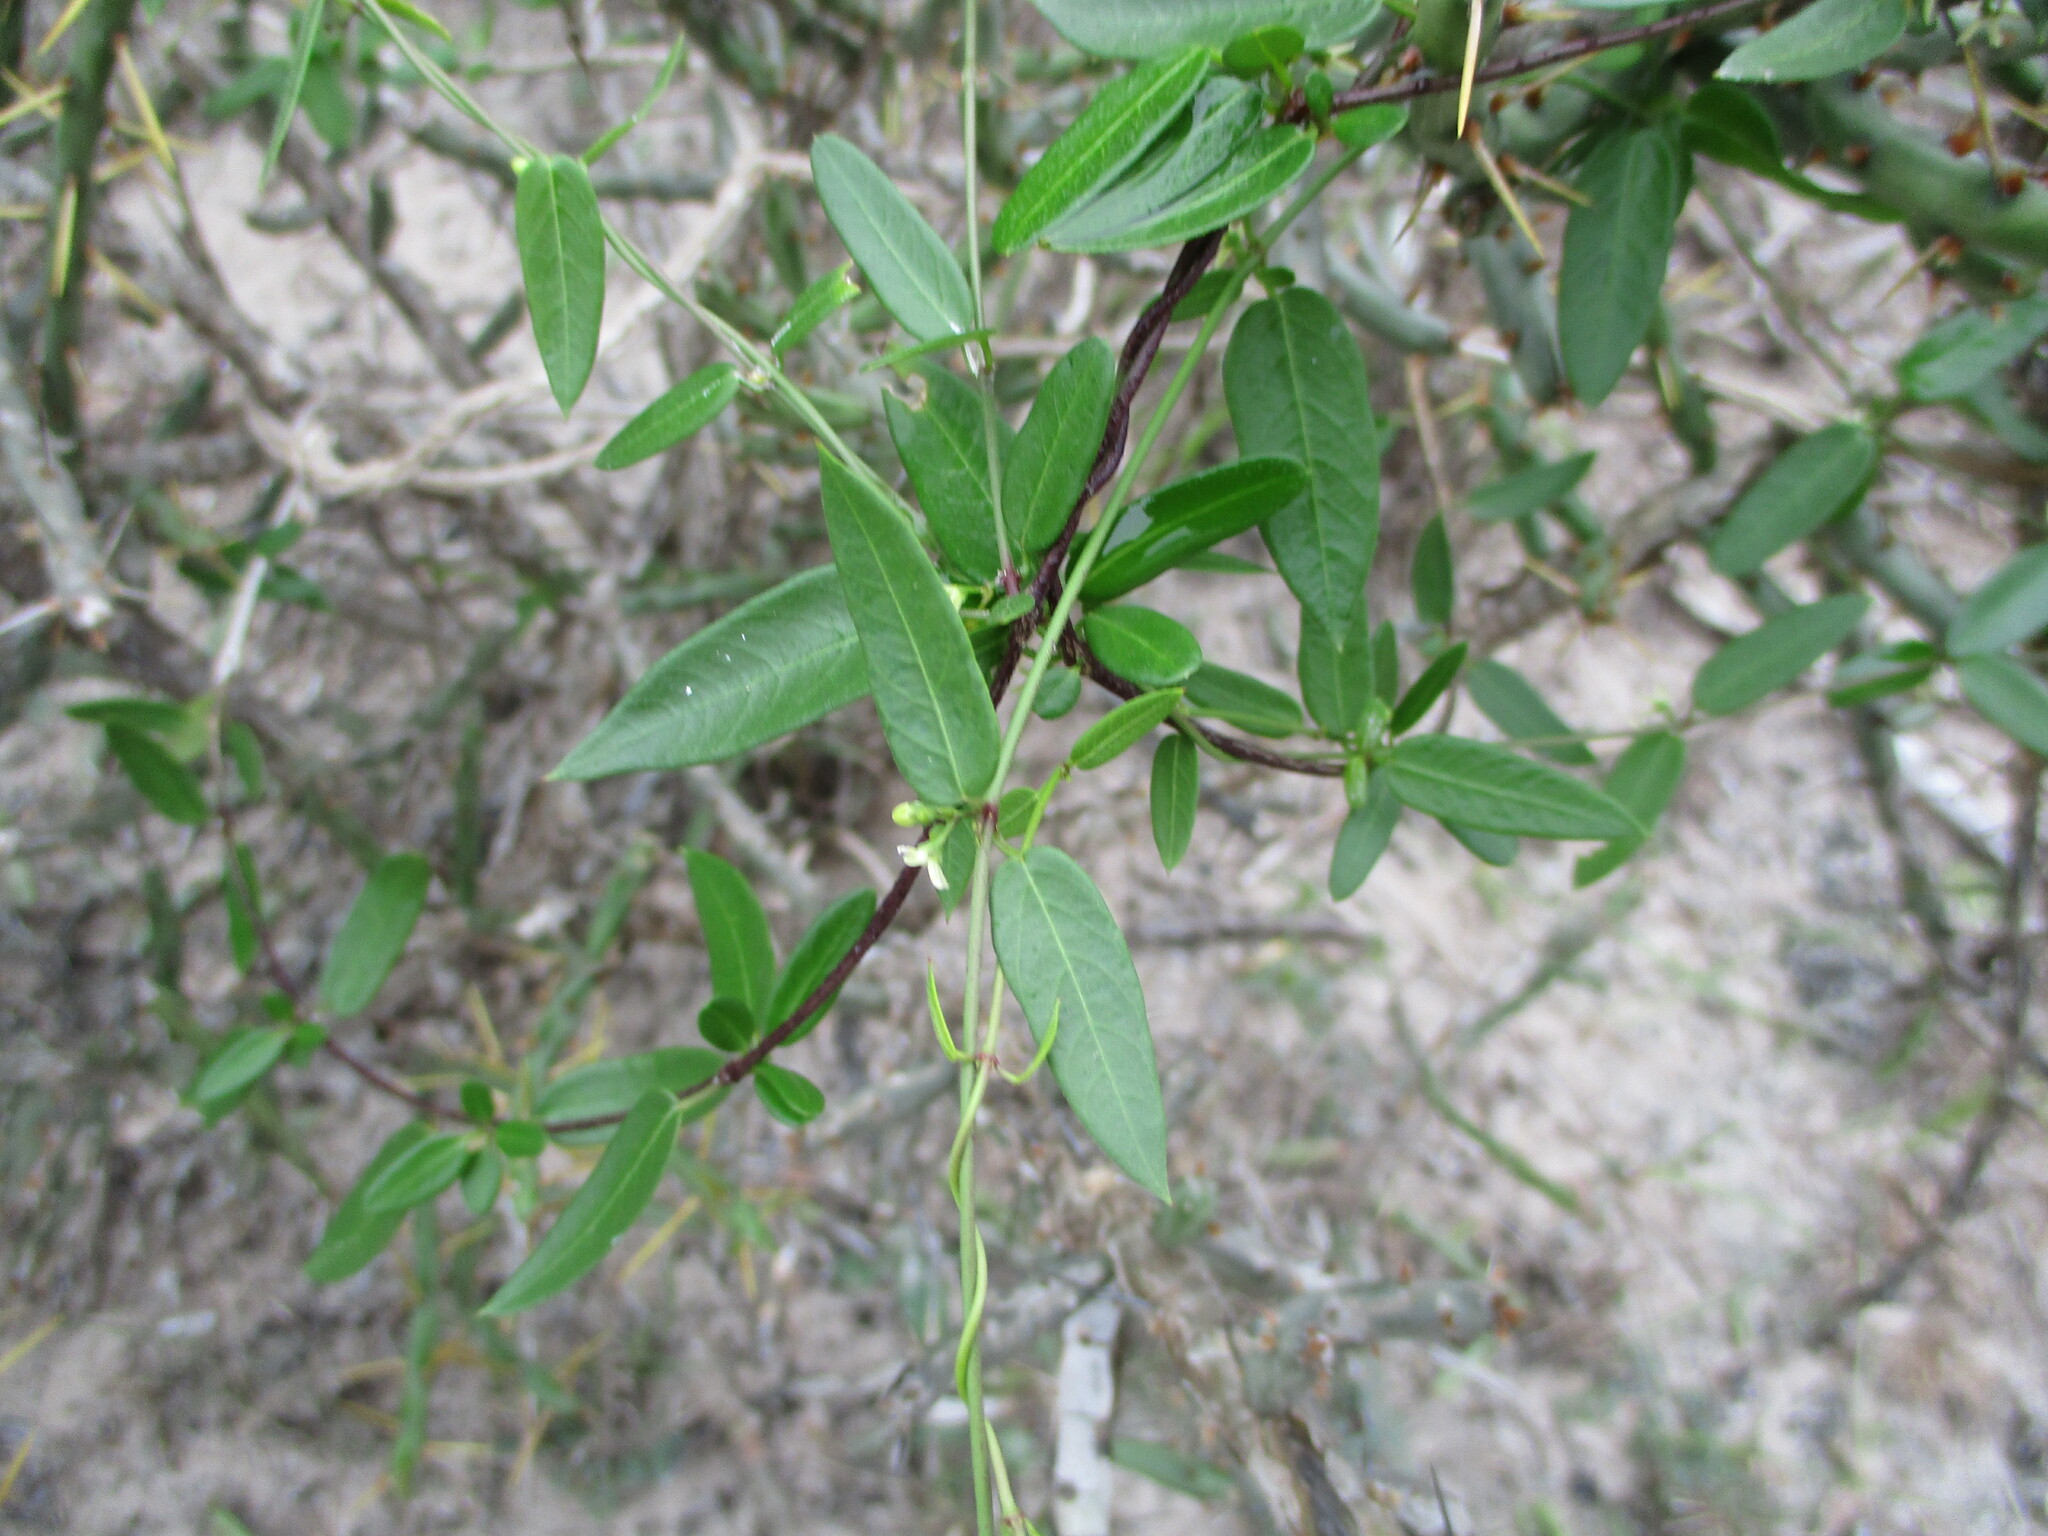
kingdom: Plantae
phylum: Tracheophyta
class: Magnoliopsida
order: Gentianales
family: Apocynaceae
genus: Metastelma
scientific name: Metastelma palmeri
